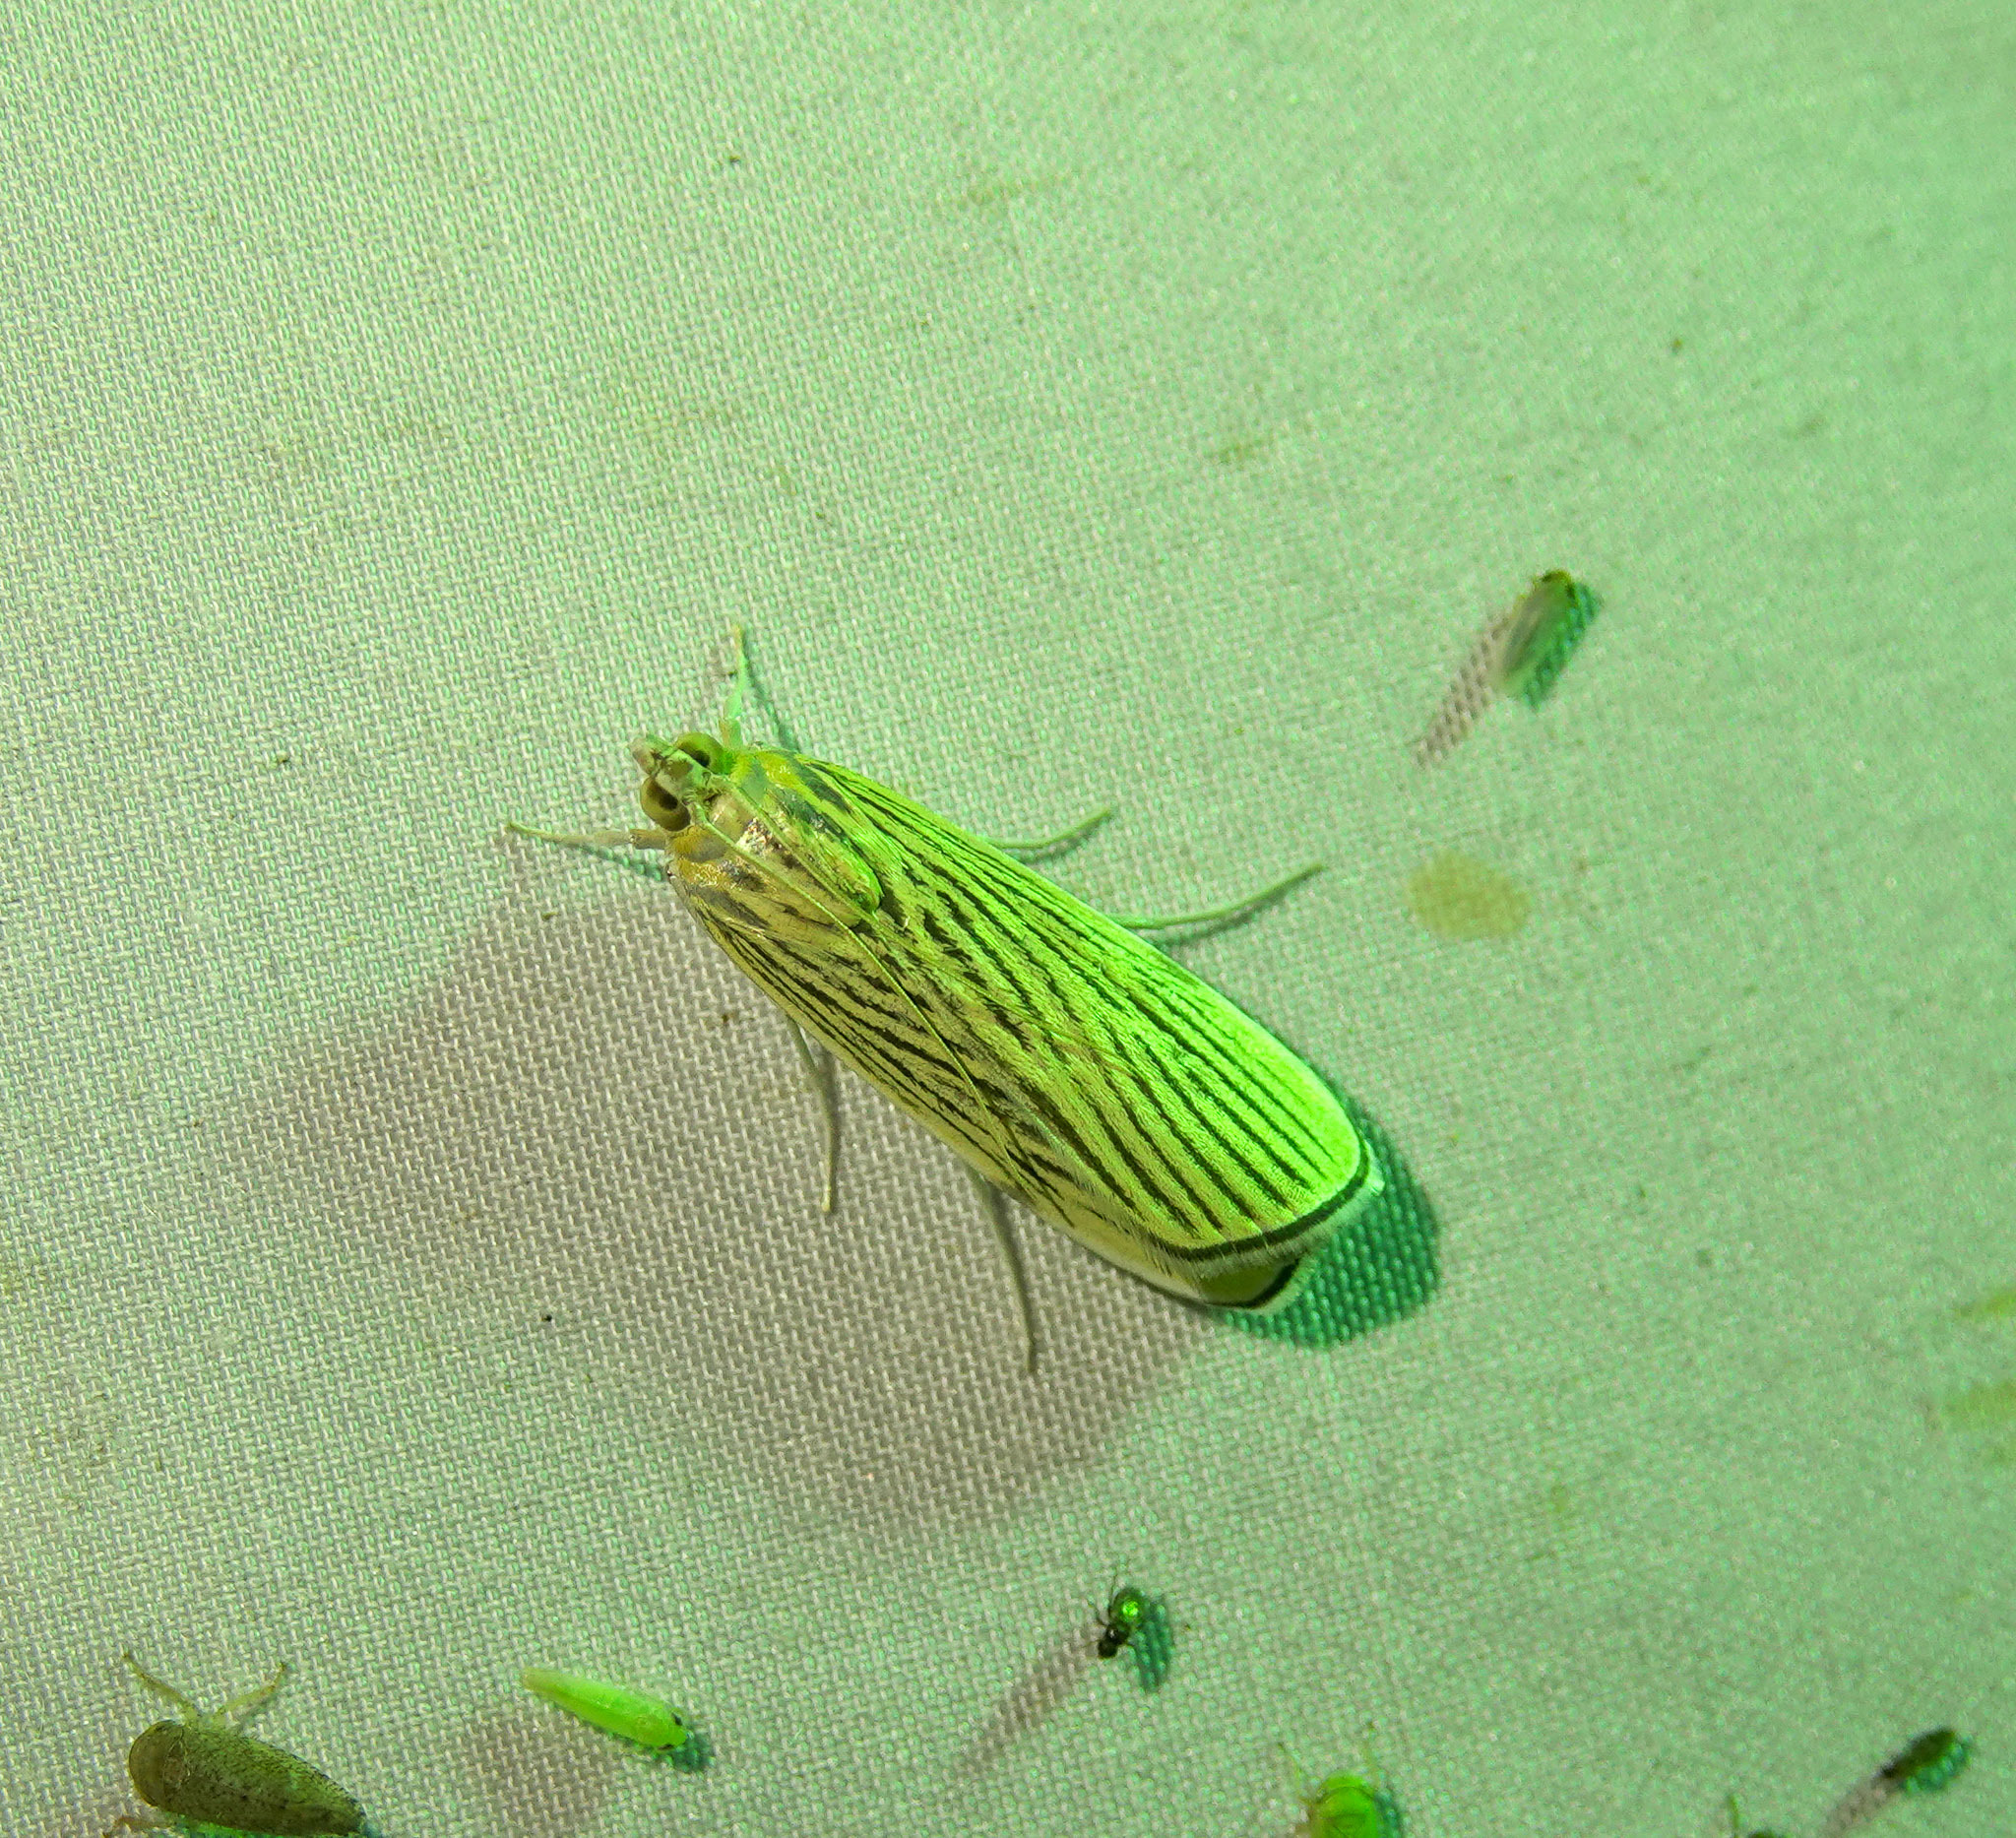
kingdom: Animalia
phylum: Arthropoda
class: Insecta
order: Lepidoptera
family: Crambidae
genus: Tyspanodes
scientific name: Tyspanodes linealis
